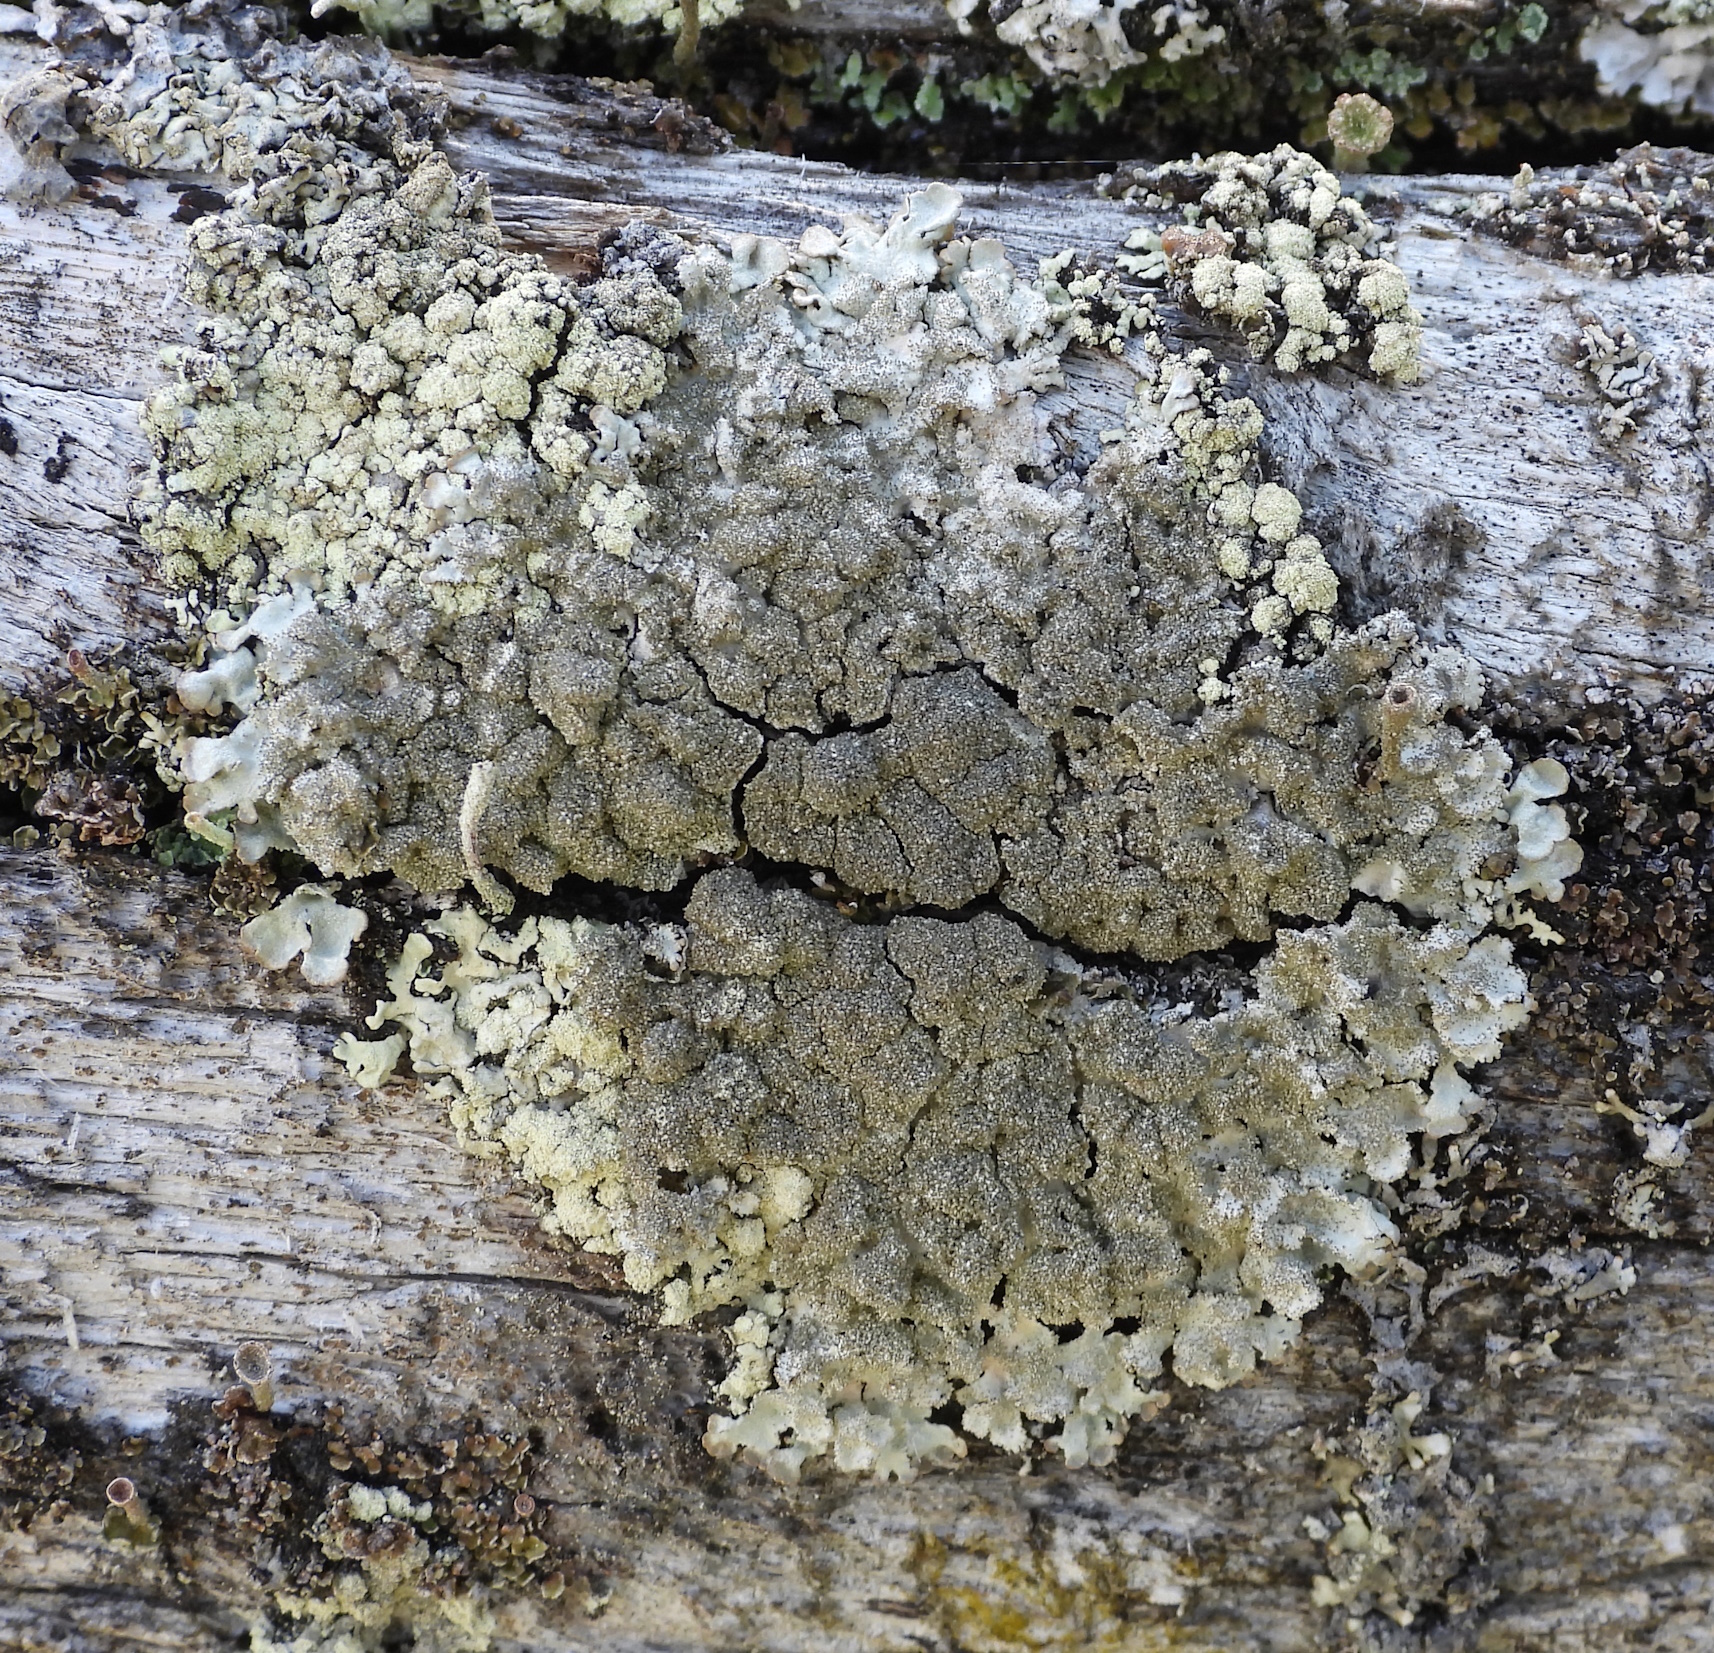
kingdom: Fungi
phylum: Ascomycota
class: Lecanoromycetes
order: Lecanorales
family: Parmeliaceae
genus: Imshaugia
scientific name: Imshaugia aleurites
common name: Salted starburst lichen
